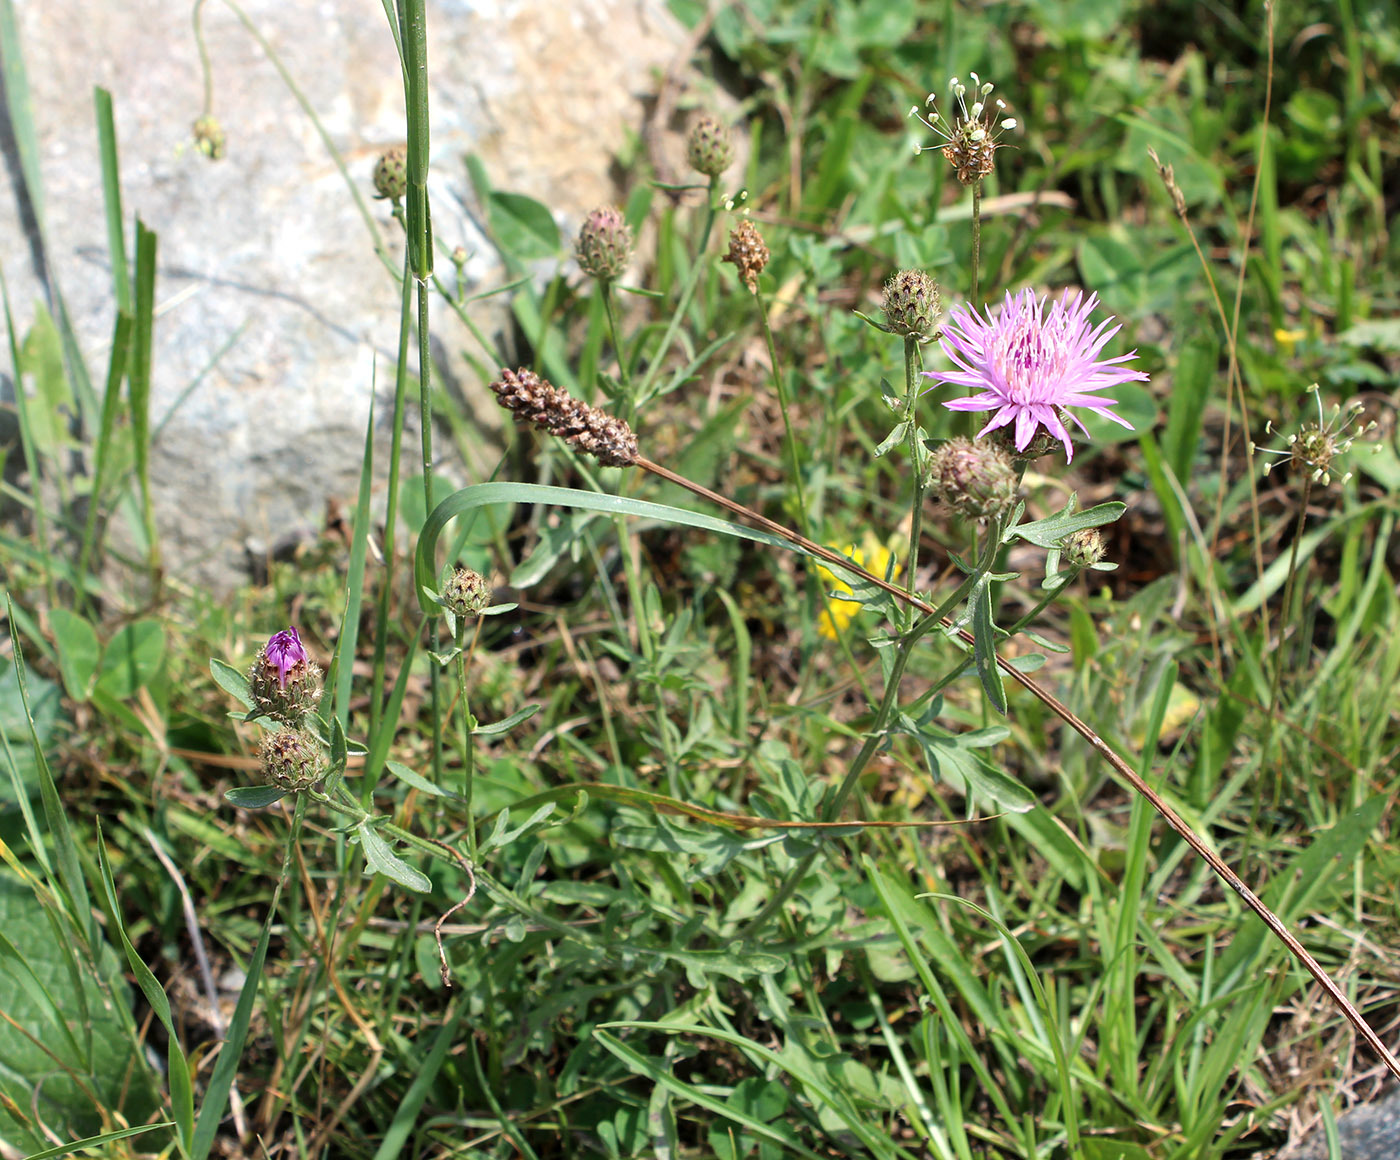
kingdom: Plantae
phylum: Tracheophyta
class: Magnoliopsida
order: Asterales
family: Asteraceae
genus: Centaurea
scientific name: Centaurea kemulariae
